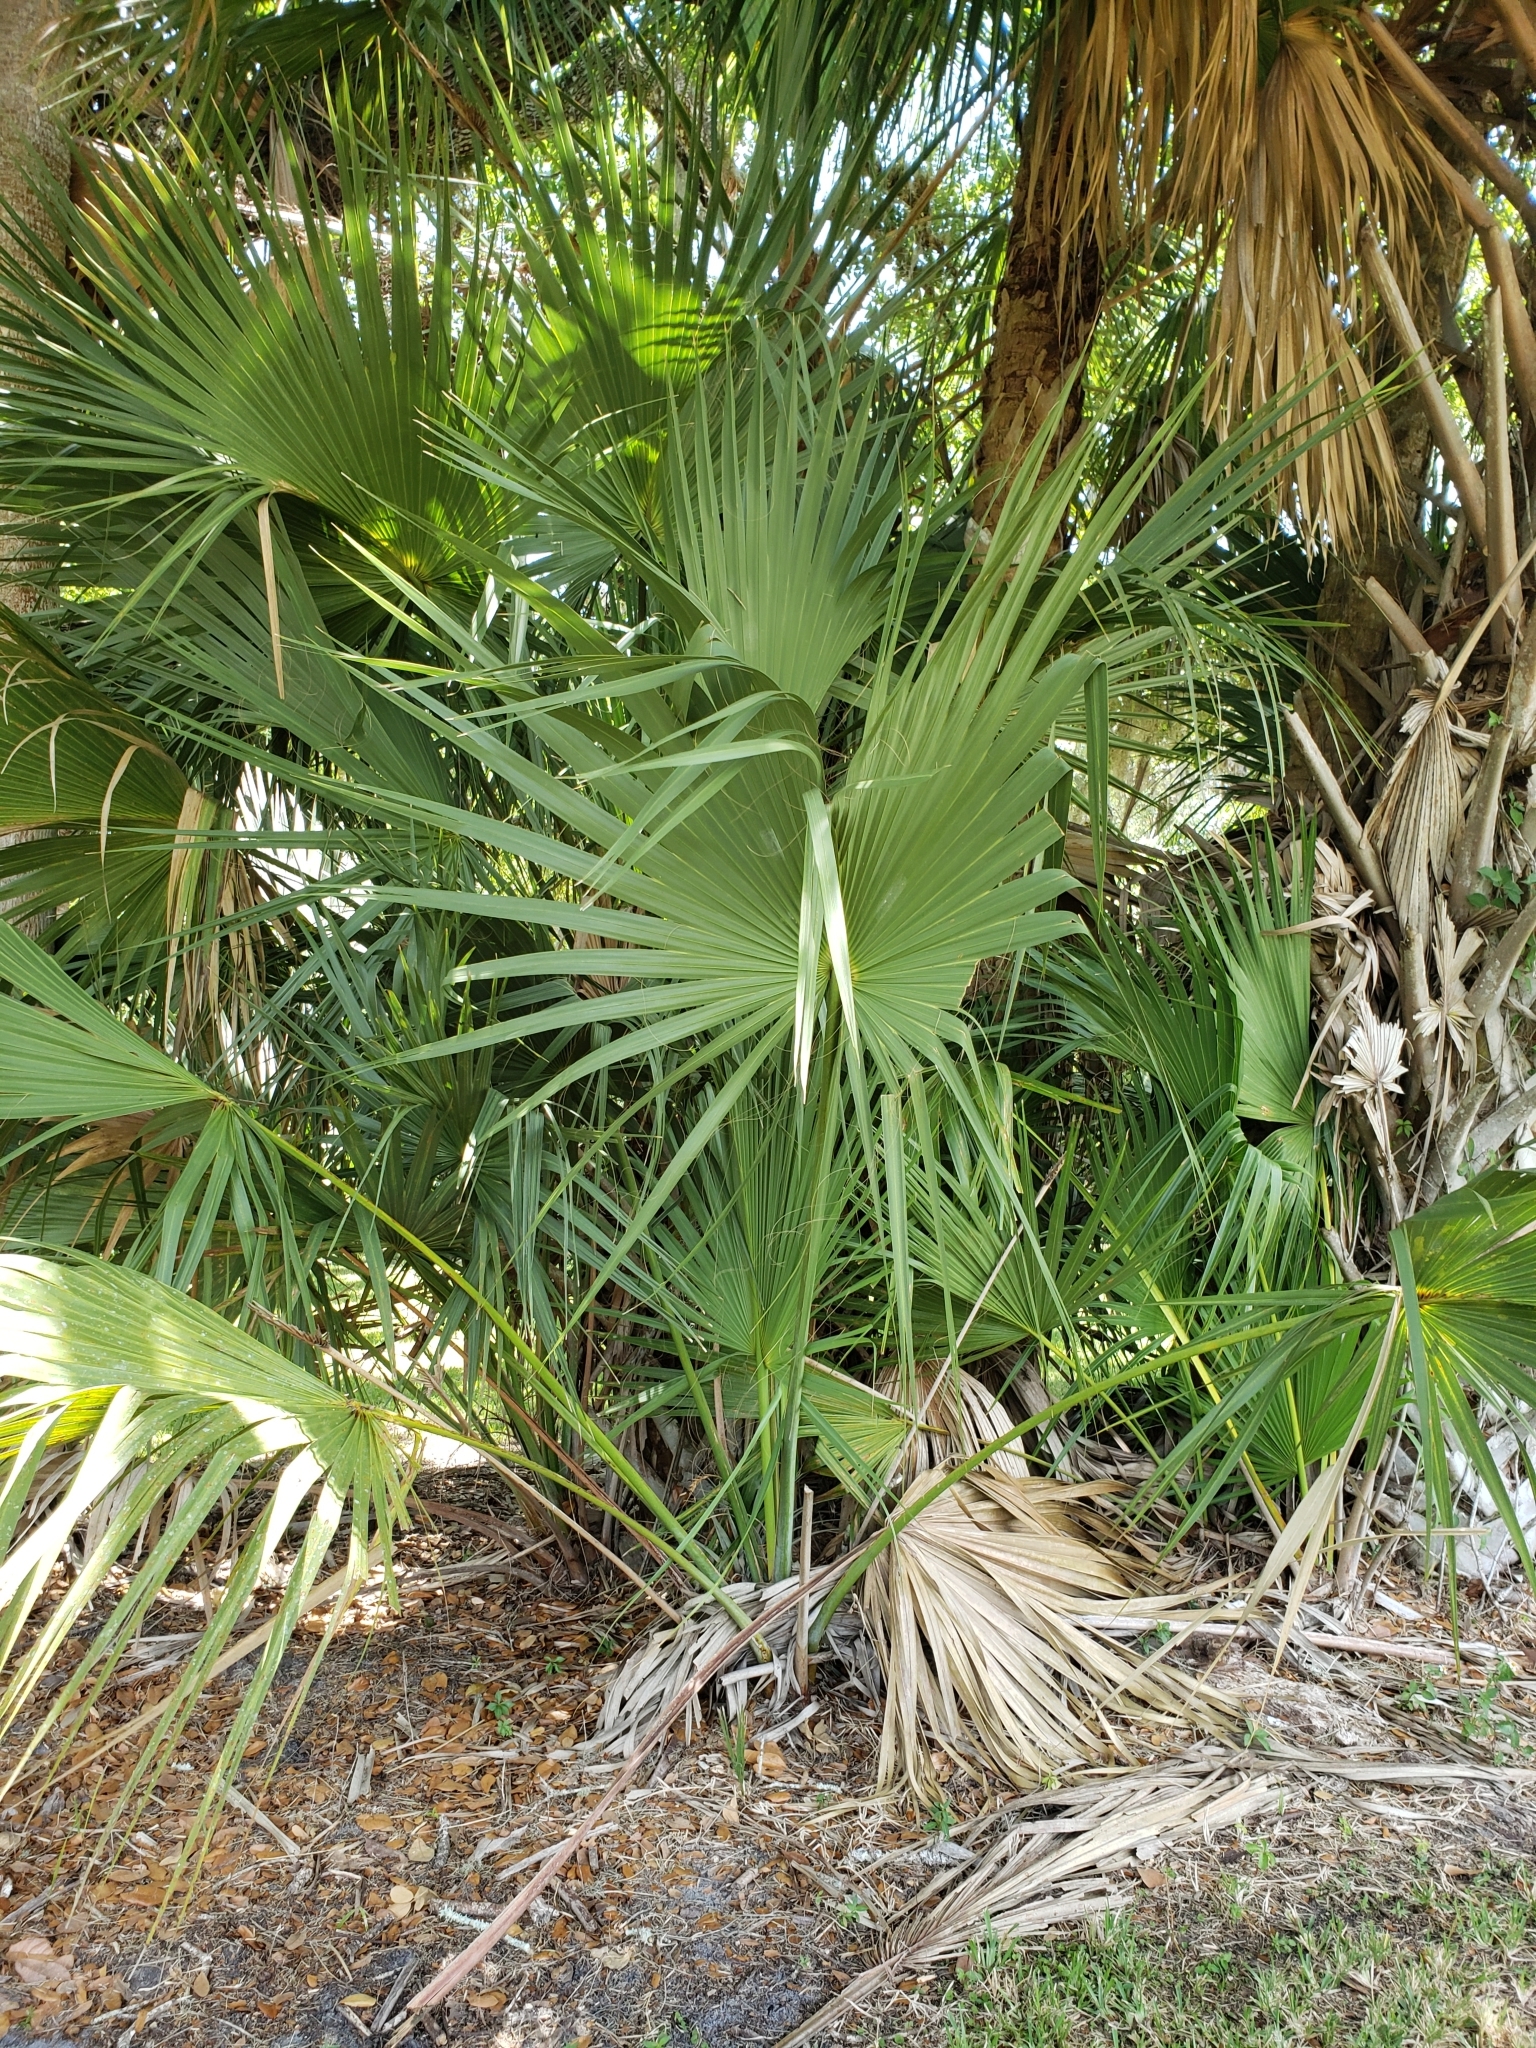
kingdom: Plantae
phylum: Tracheophyta
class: Liliopsida
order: Arecales
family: Arecaceae
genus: Sabal
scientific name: Sabal palmetto
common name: Blue palmetto
